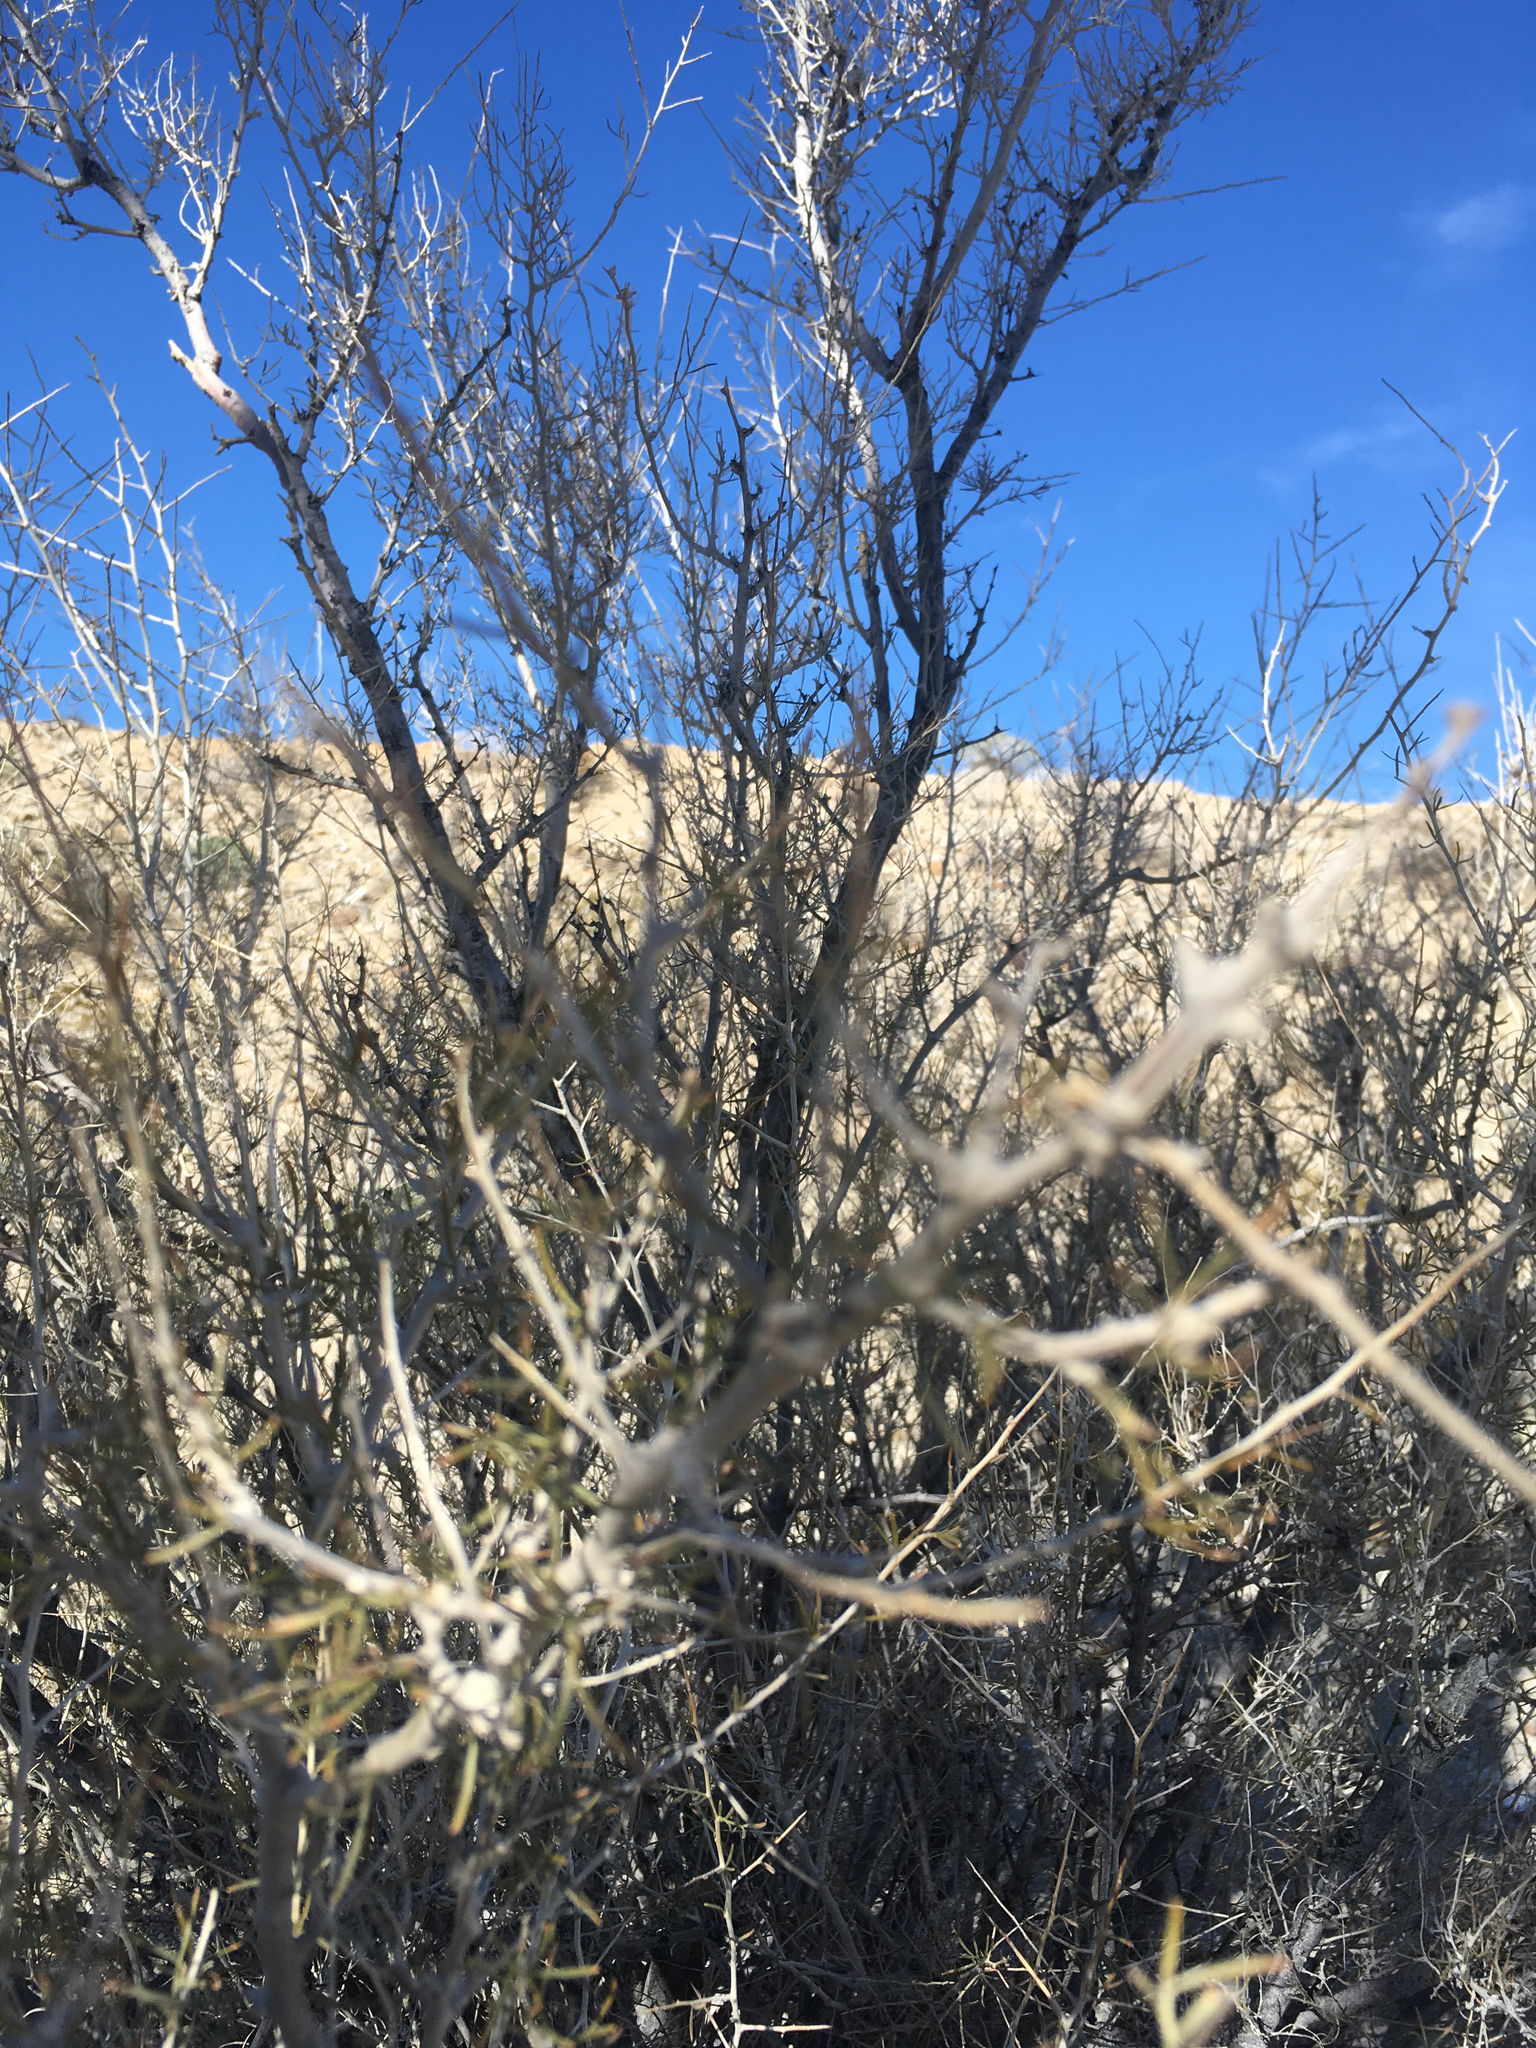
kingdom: Plantae
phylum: Tracheophyta
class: Magnoliopsida
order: Fabales
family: Fabaceae
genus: Psorothamnus
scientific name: Psorothamnus schottii
